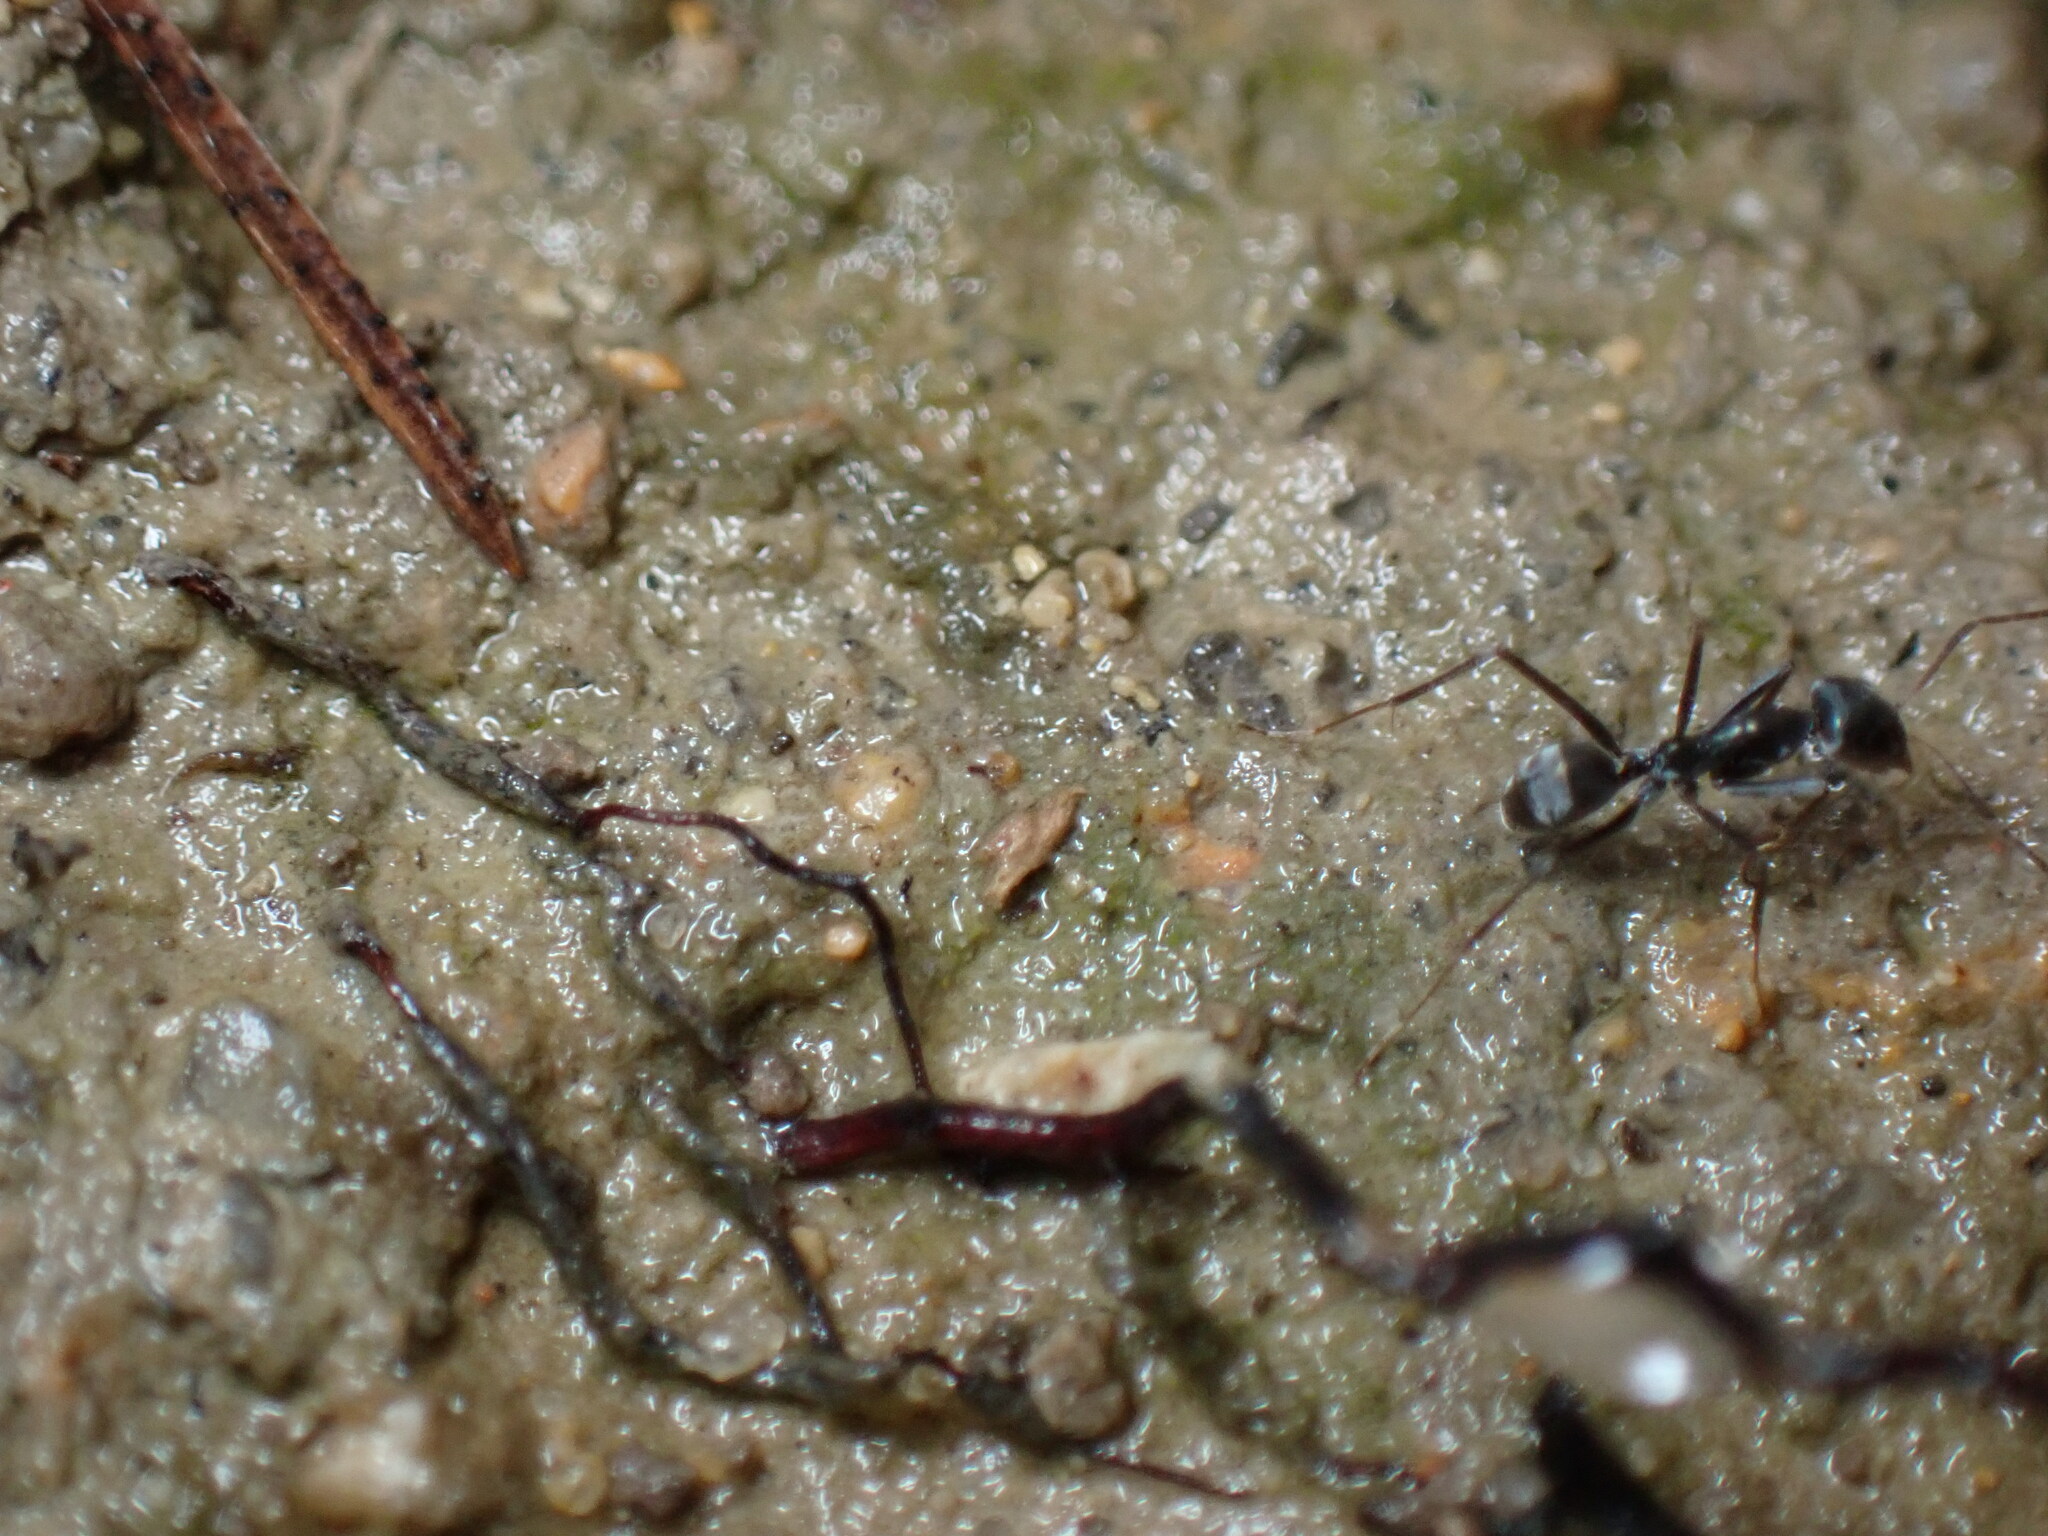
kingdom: Animalia
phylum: Arthropoda
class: Insecta
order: Hymenoptera
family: Formicidae
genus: Iridomyrmex
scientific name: Iridomyrmex anceps
